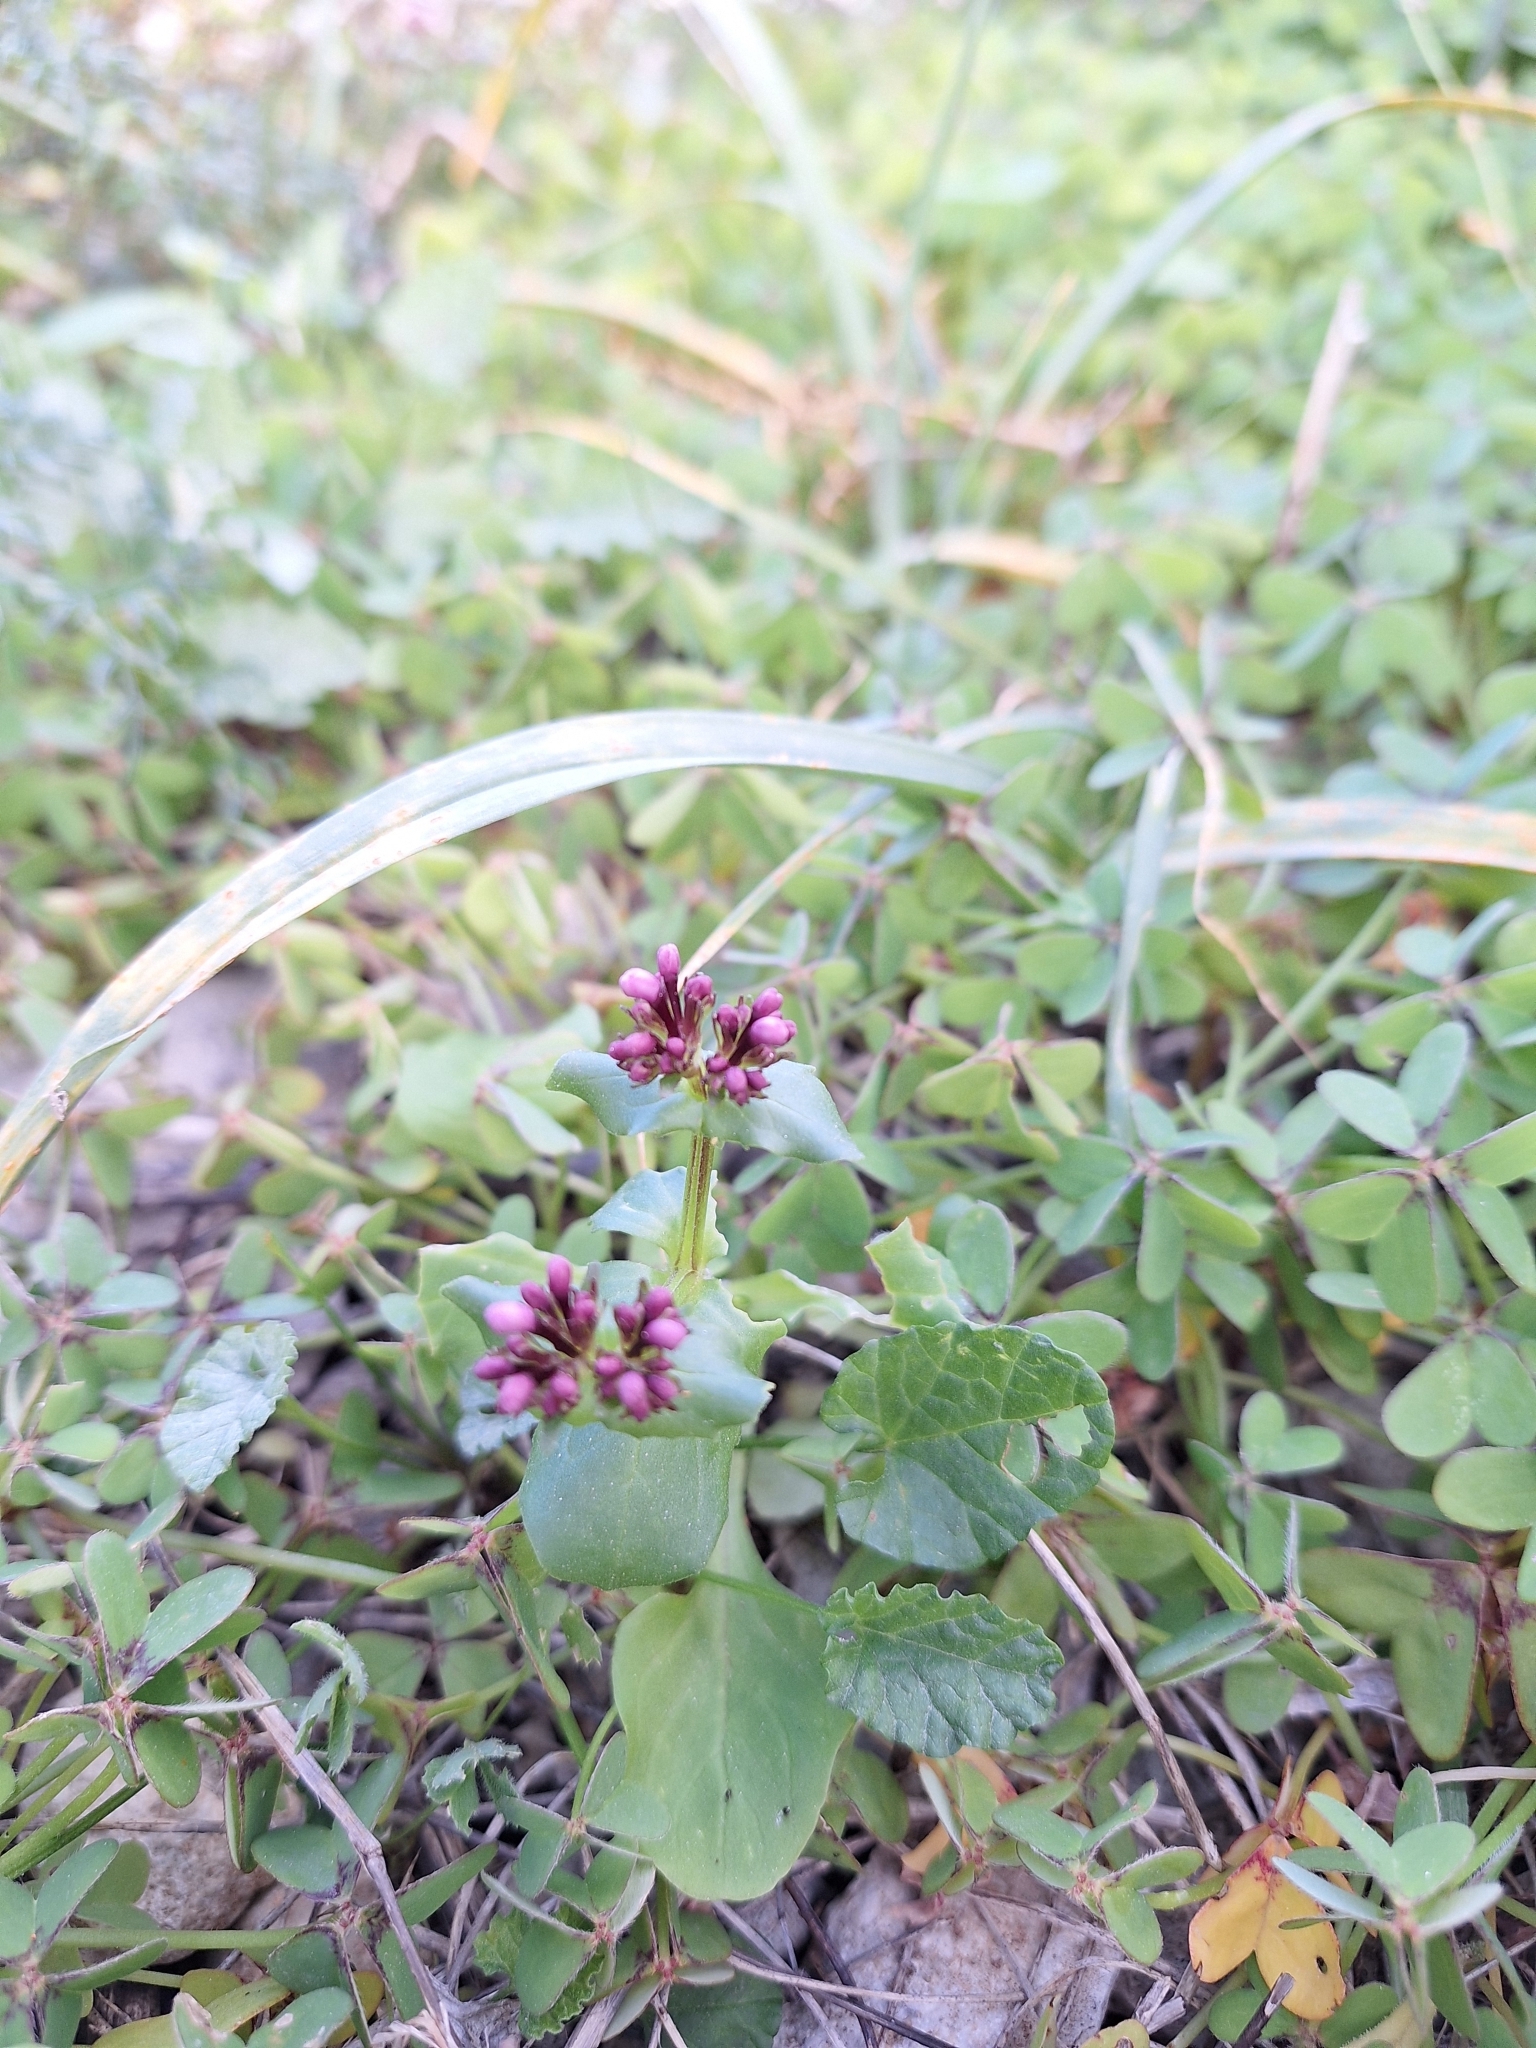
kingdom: Plantae
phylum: Tracheophyta
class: Magnoliopsida
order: Dipsacales
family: Caprifoliaceae
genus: Fedia
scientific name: Fedia graciliflora
